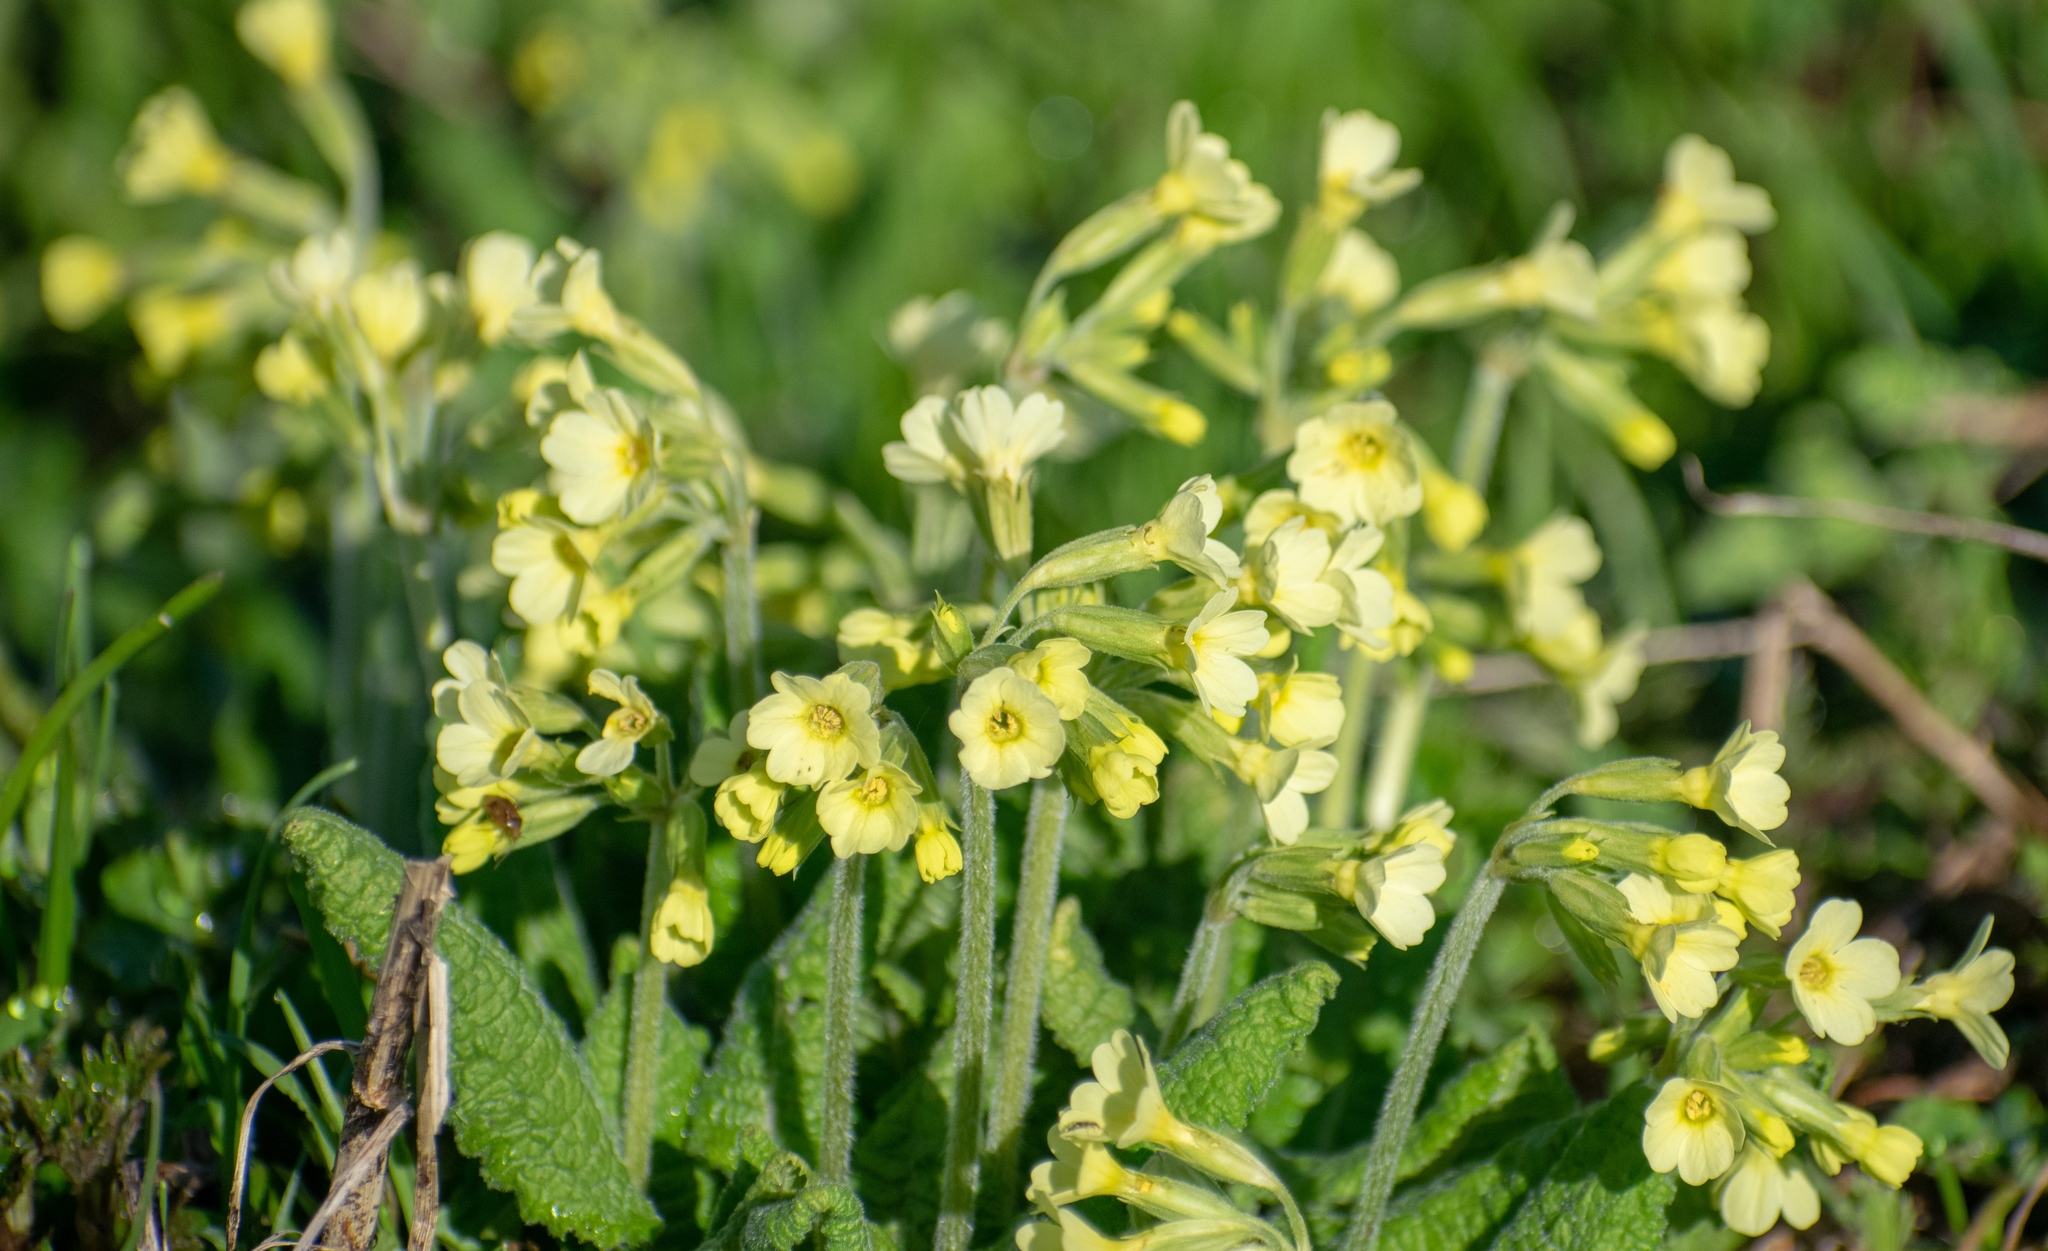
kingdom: Plantae
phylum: Tracheophyta
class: Magnoliopsida
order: Ericales
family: Primulaceae
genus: Primula
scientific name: Primula elatior
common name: Oxlip
